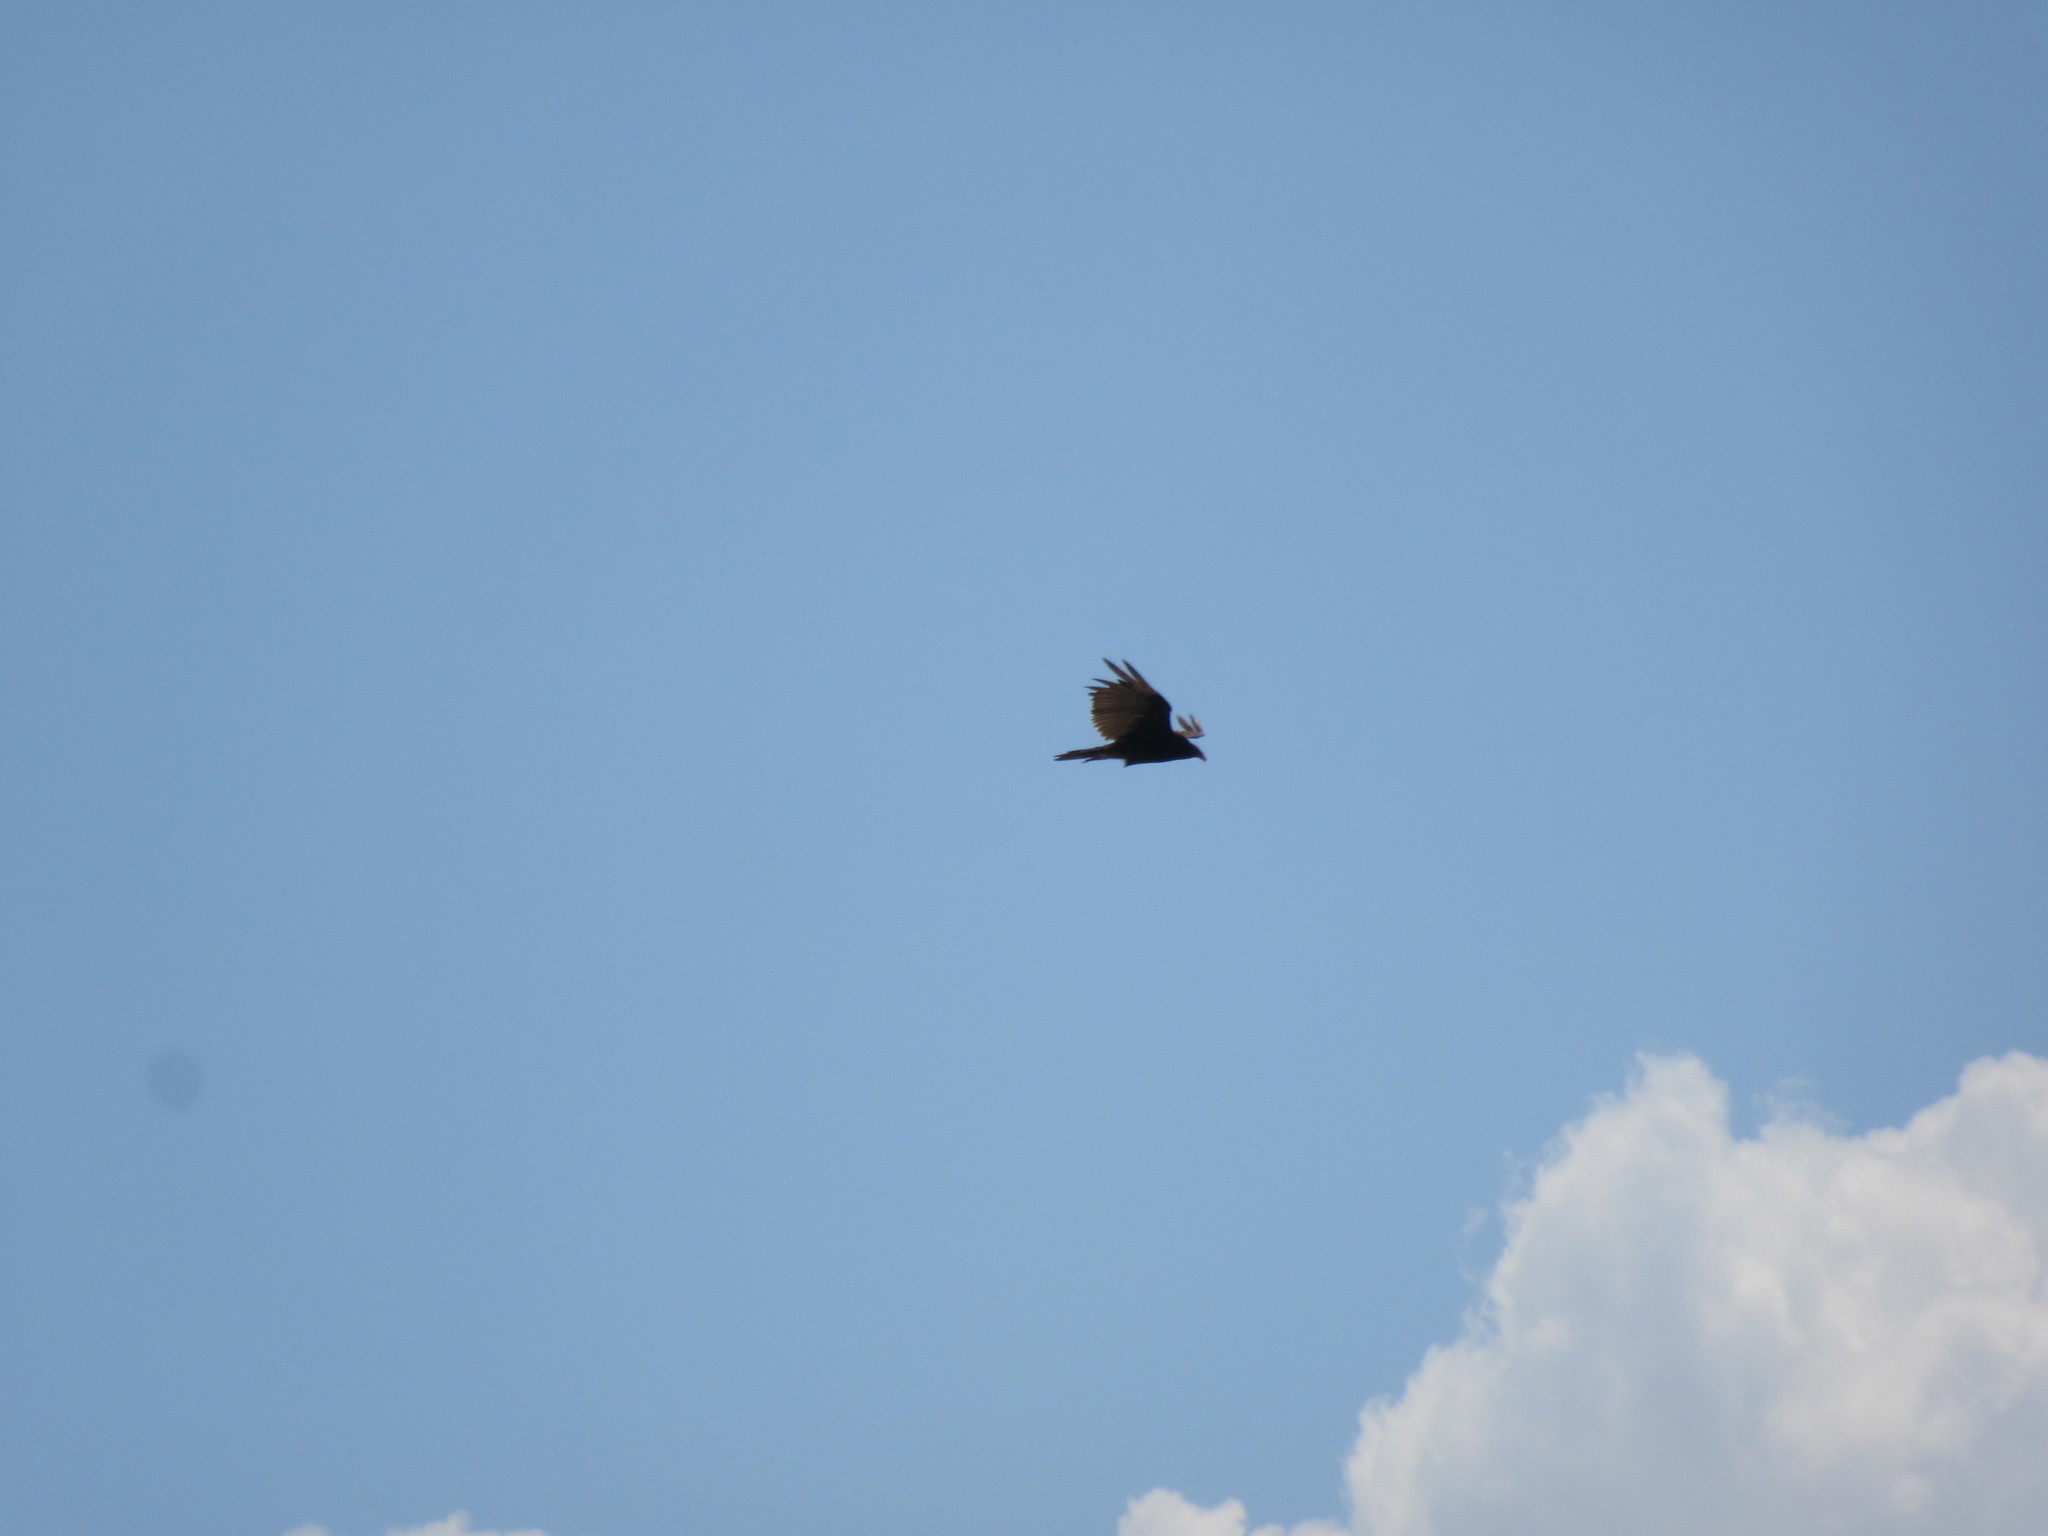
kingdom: Animalia
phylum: Chordata
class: Aves
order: Accipitriformes
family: Cathartidae
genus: Cathartes
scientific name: Cathartes aura
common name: Turkey vulture
